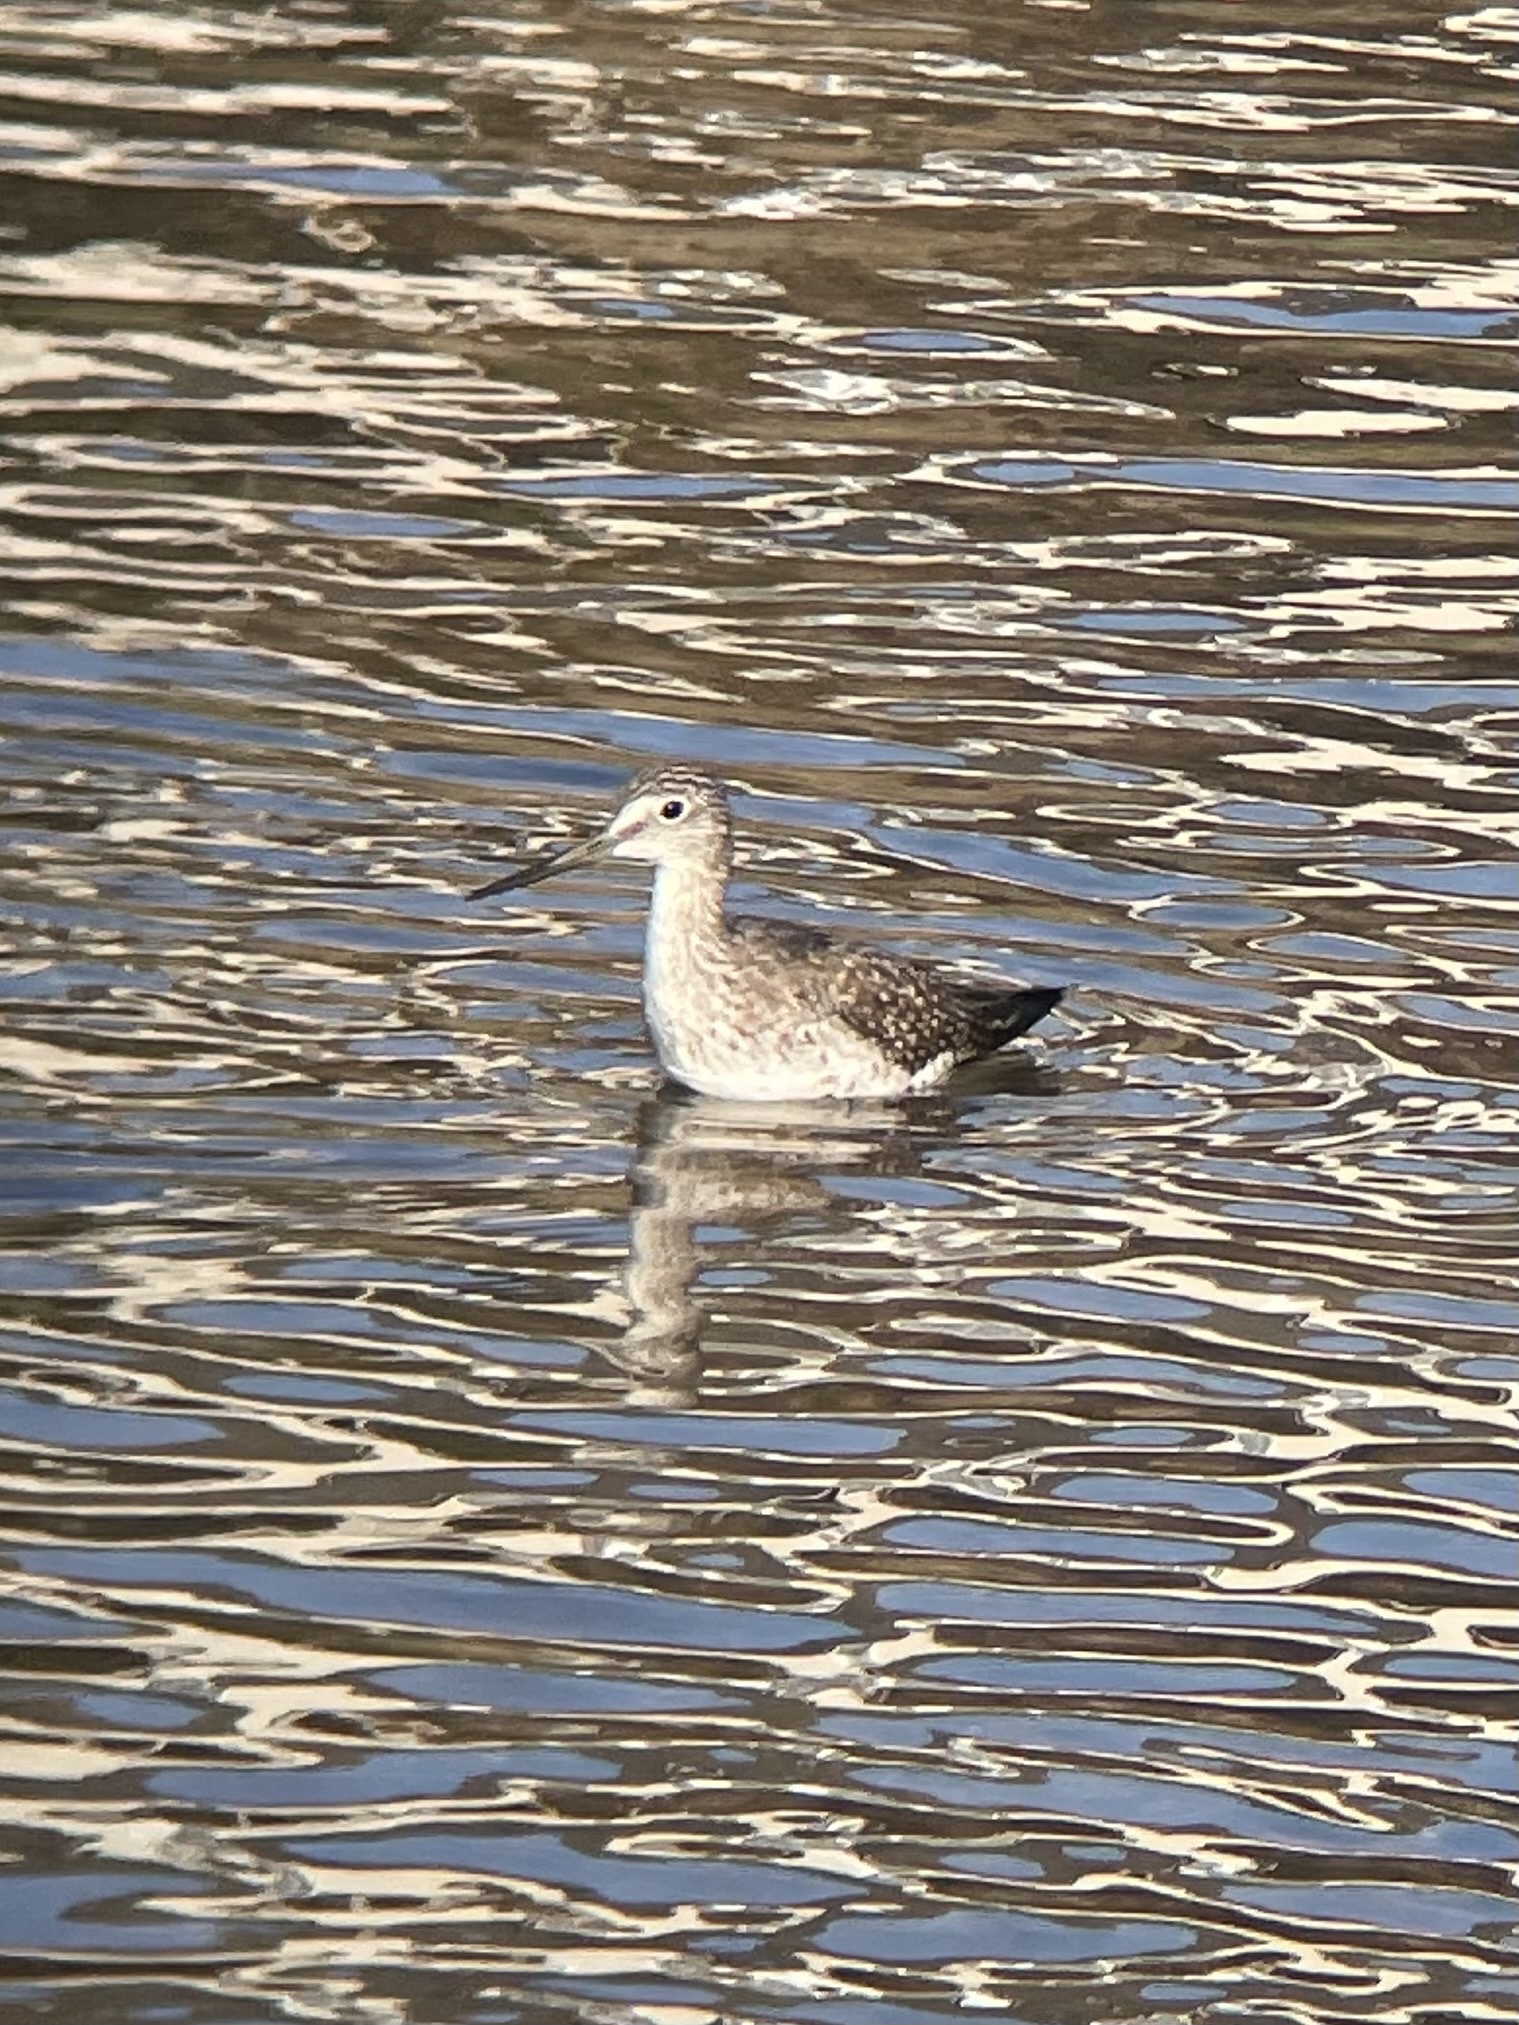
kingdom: Animalia
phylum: Chordata
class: Aves
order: Charadriiformes
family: Scolopacidae
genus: Tringa
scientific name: Tringa melanoleuca
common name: Greater yellowlegs
